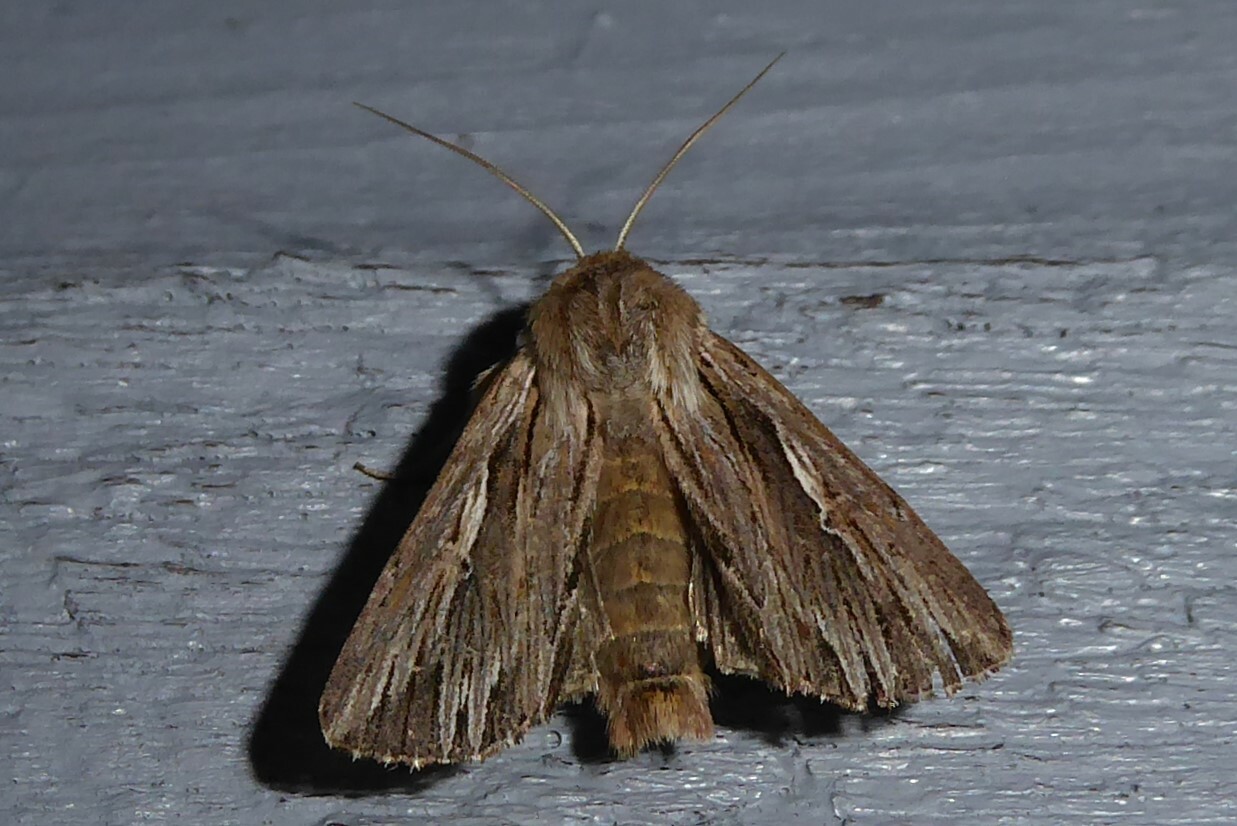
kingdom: Animalia
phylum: Arthropoda
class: Insecta
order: Lepidoptera
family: Noctuidae
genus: Persectania
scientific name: Persectania aversa
